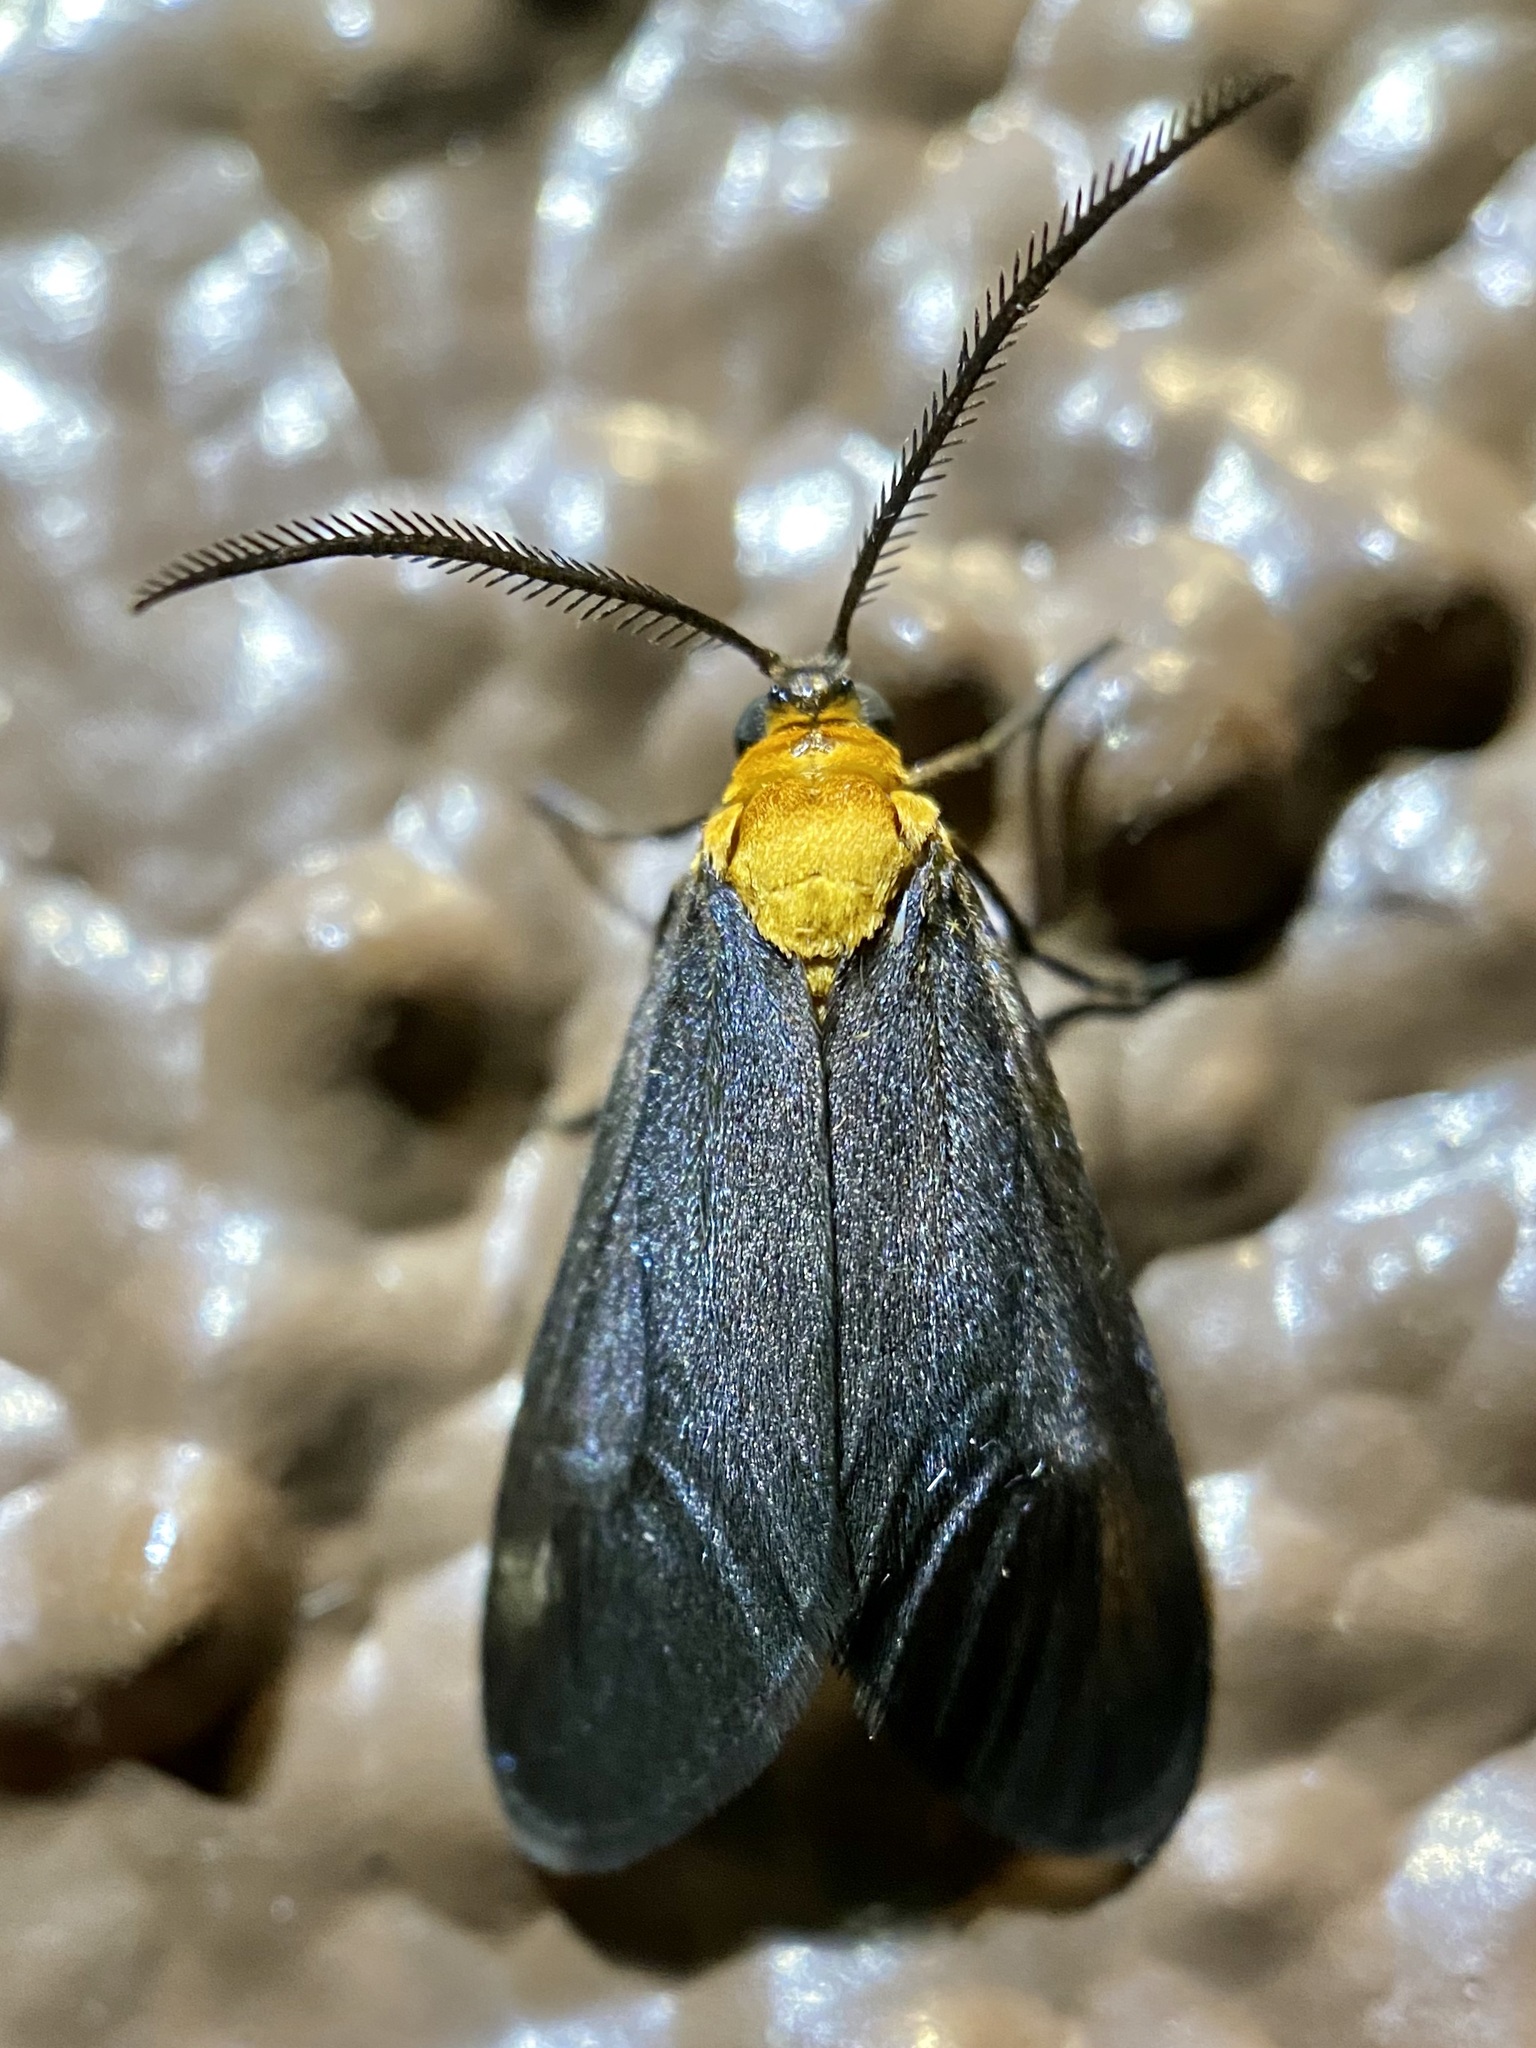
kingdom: Animalia
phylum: Arthropoda
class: Insecta
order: Lepidoptera
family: Zygaenidae
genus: Neoilliberis
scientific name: Neoilliberis fusca
